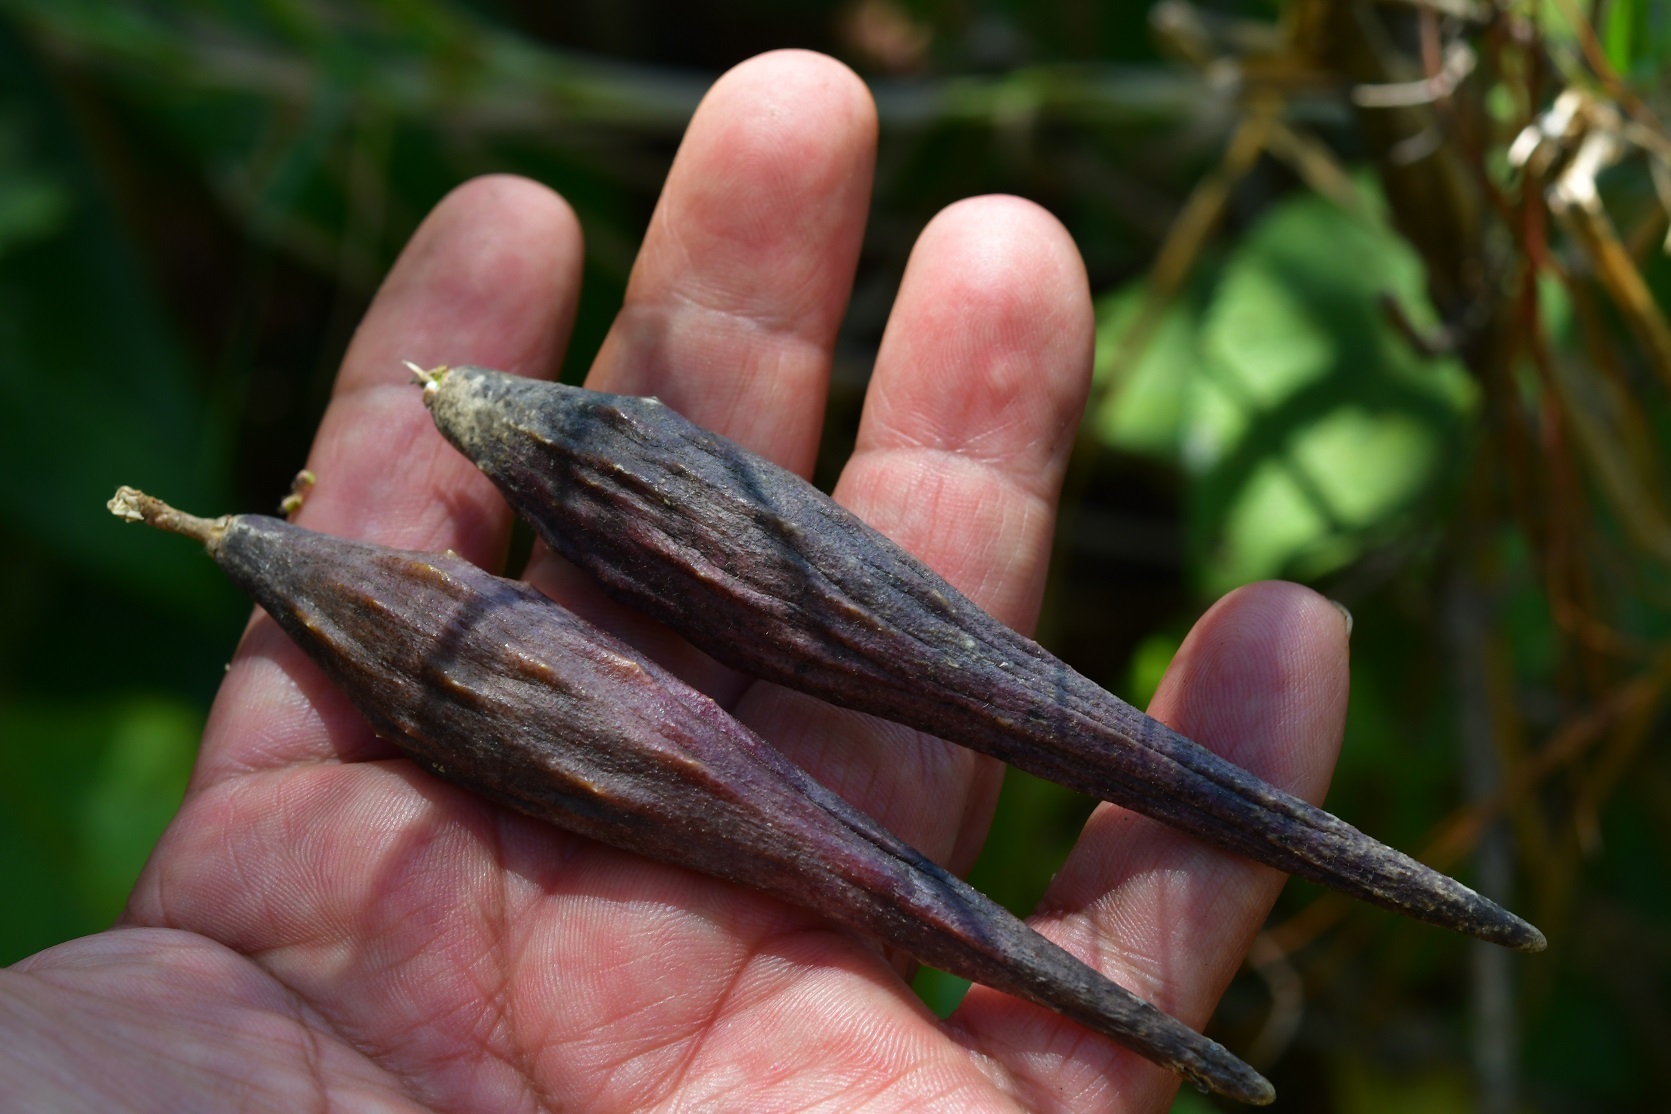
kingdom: Plantae
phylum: Tracheophyta
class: Magnoliopsida
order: Gentianales
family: Apocynaceae
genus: Matelea
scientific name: Matelea medusae
